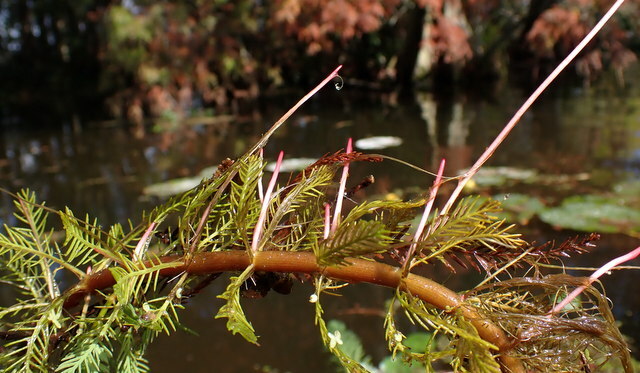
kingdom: Plantae
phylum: Tracheophyta
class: Magnoliopsida
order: Saxifragales
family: Haloragaceae
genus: Myriophyllum
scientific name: Myriophyllum aquaticum
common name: Parrot's feather
